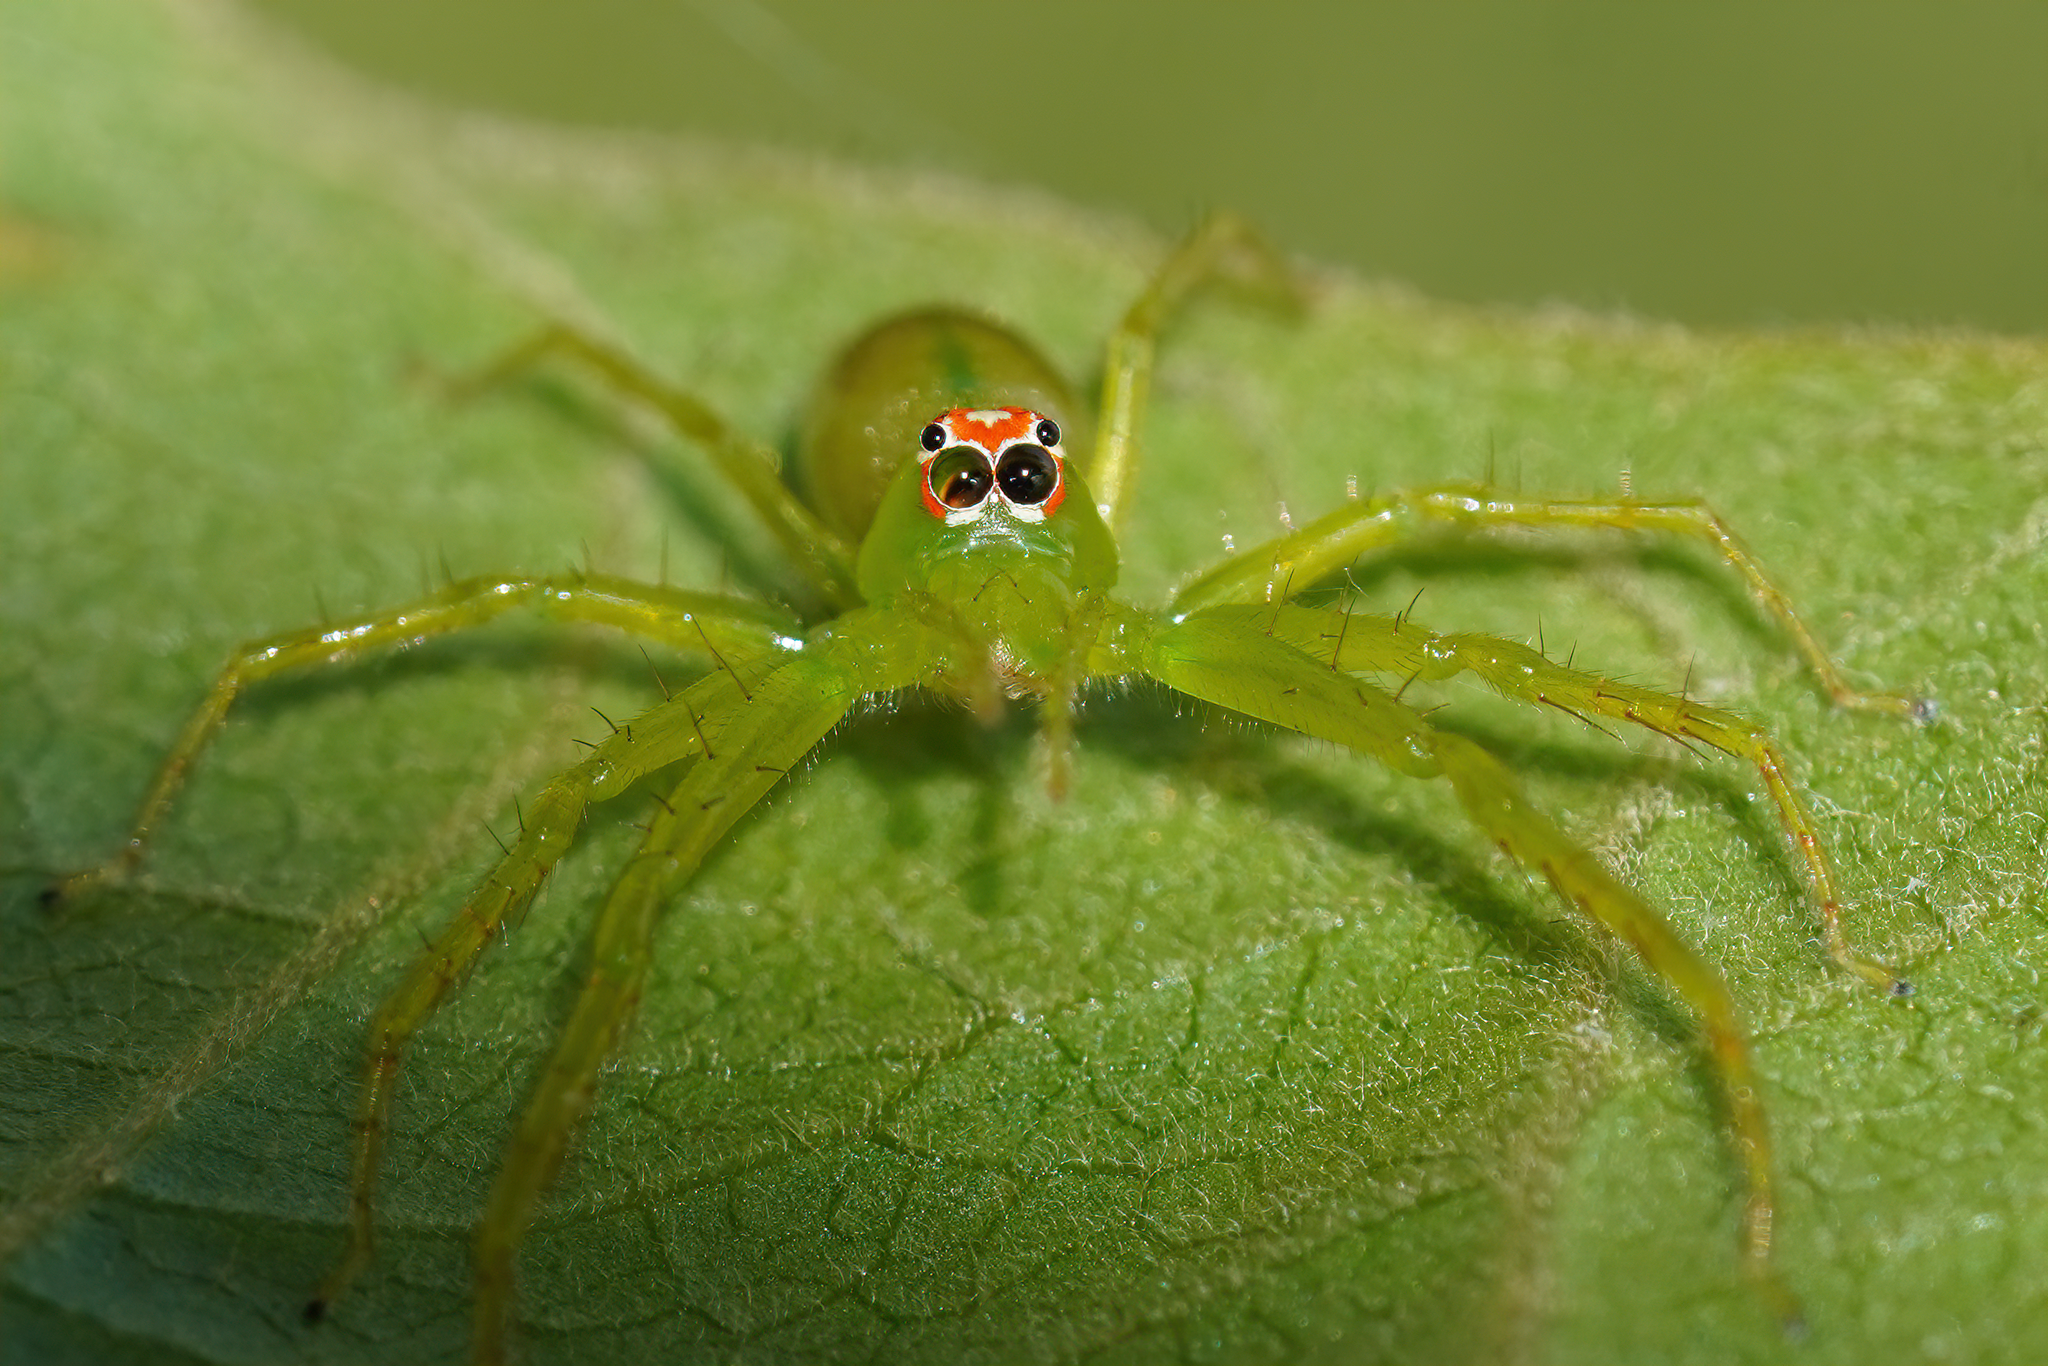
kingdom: Animalia
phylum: Arthropoda
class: Arachnida
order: Araneae
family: Salticidae
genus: Lyssomanes
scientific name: Lyssomanes viridis
